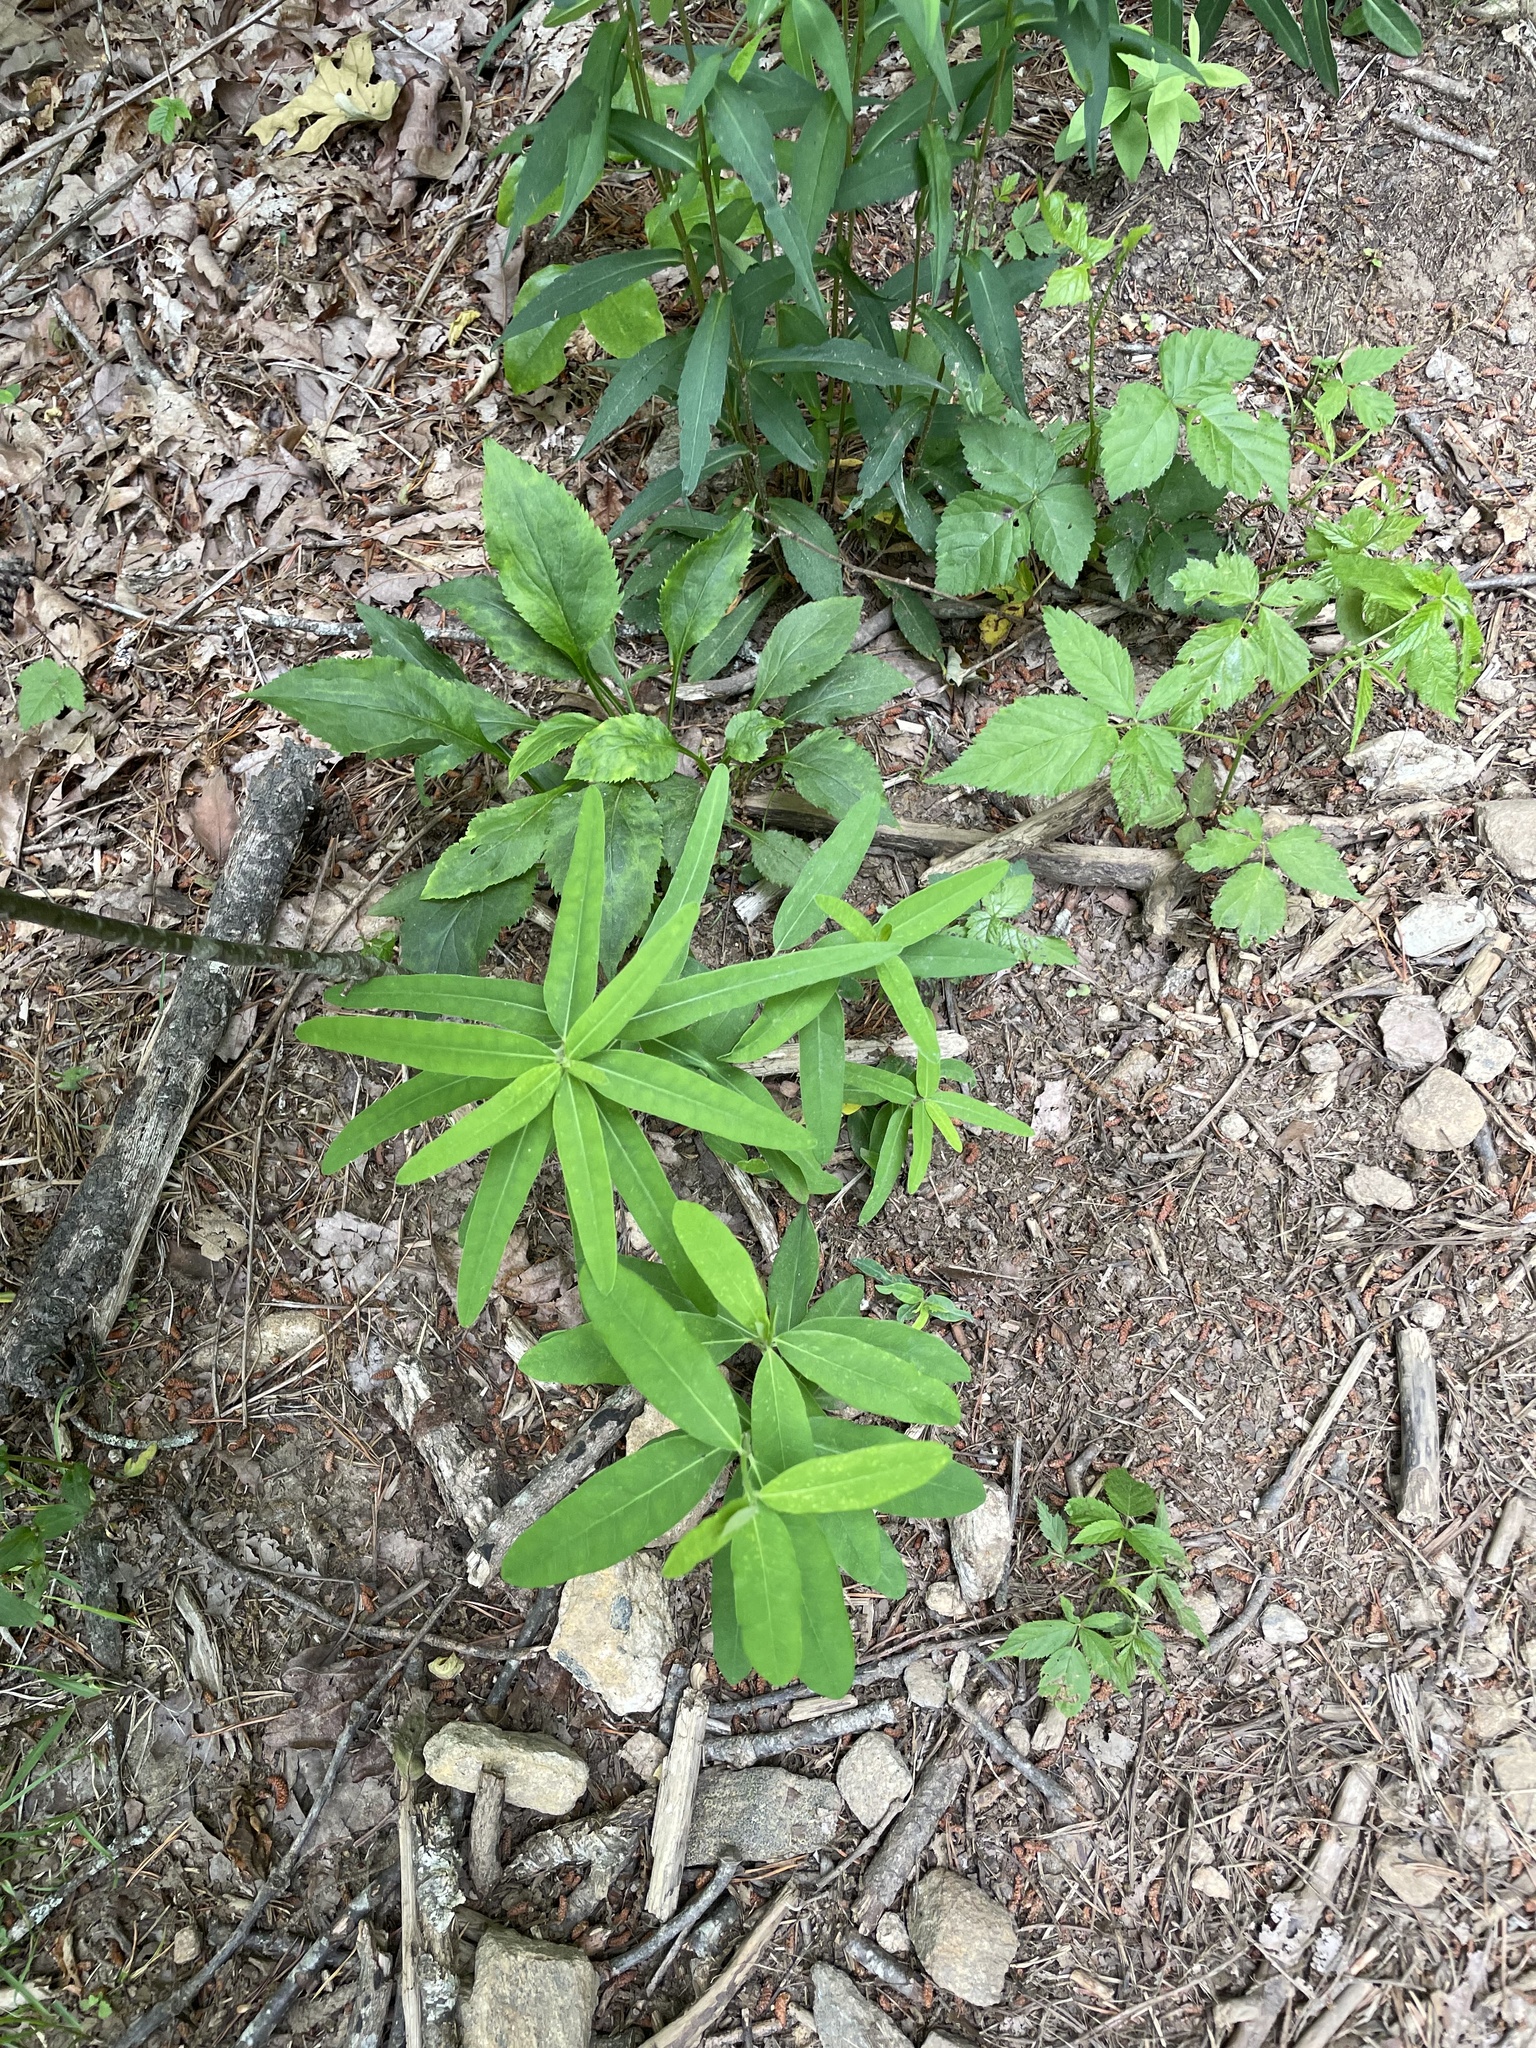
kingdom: Plantae
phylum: Tracheophyta
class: Magnoliopsida
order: Malpighiales
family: Euphorbiaceae
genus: Euphorbia
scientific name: Euphorbia pubentissima
